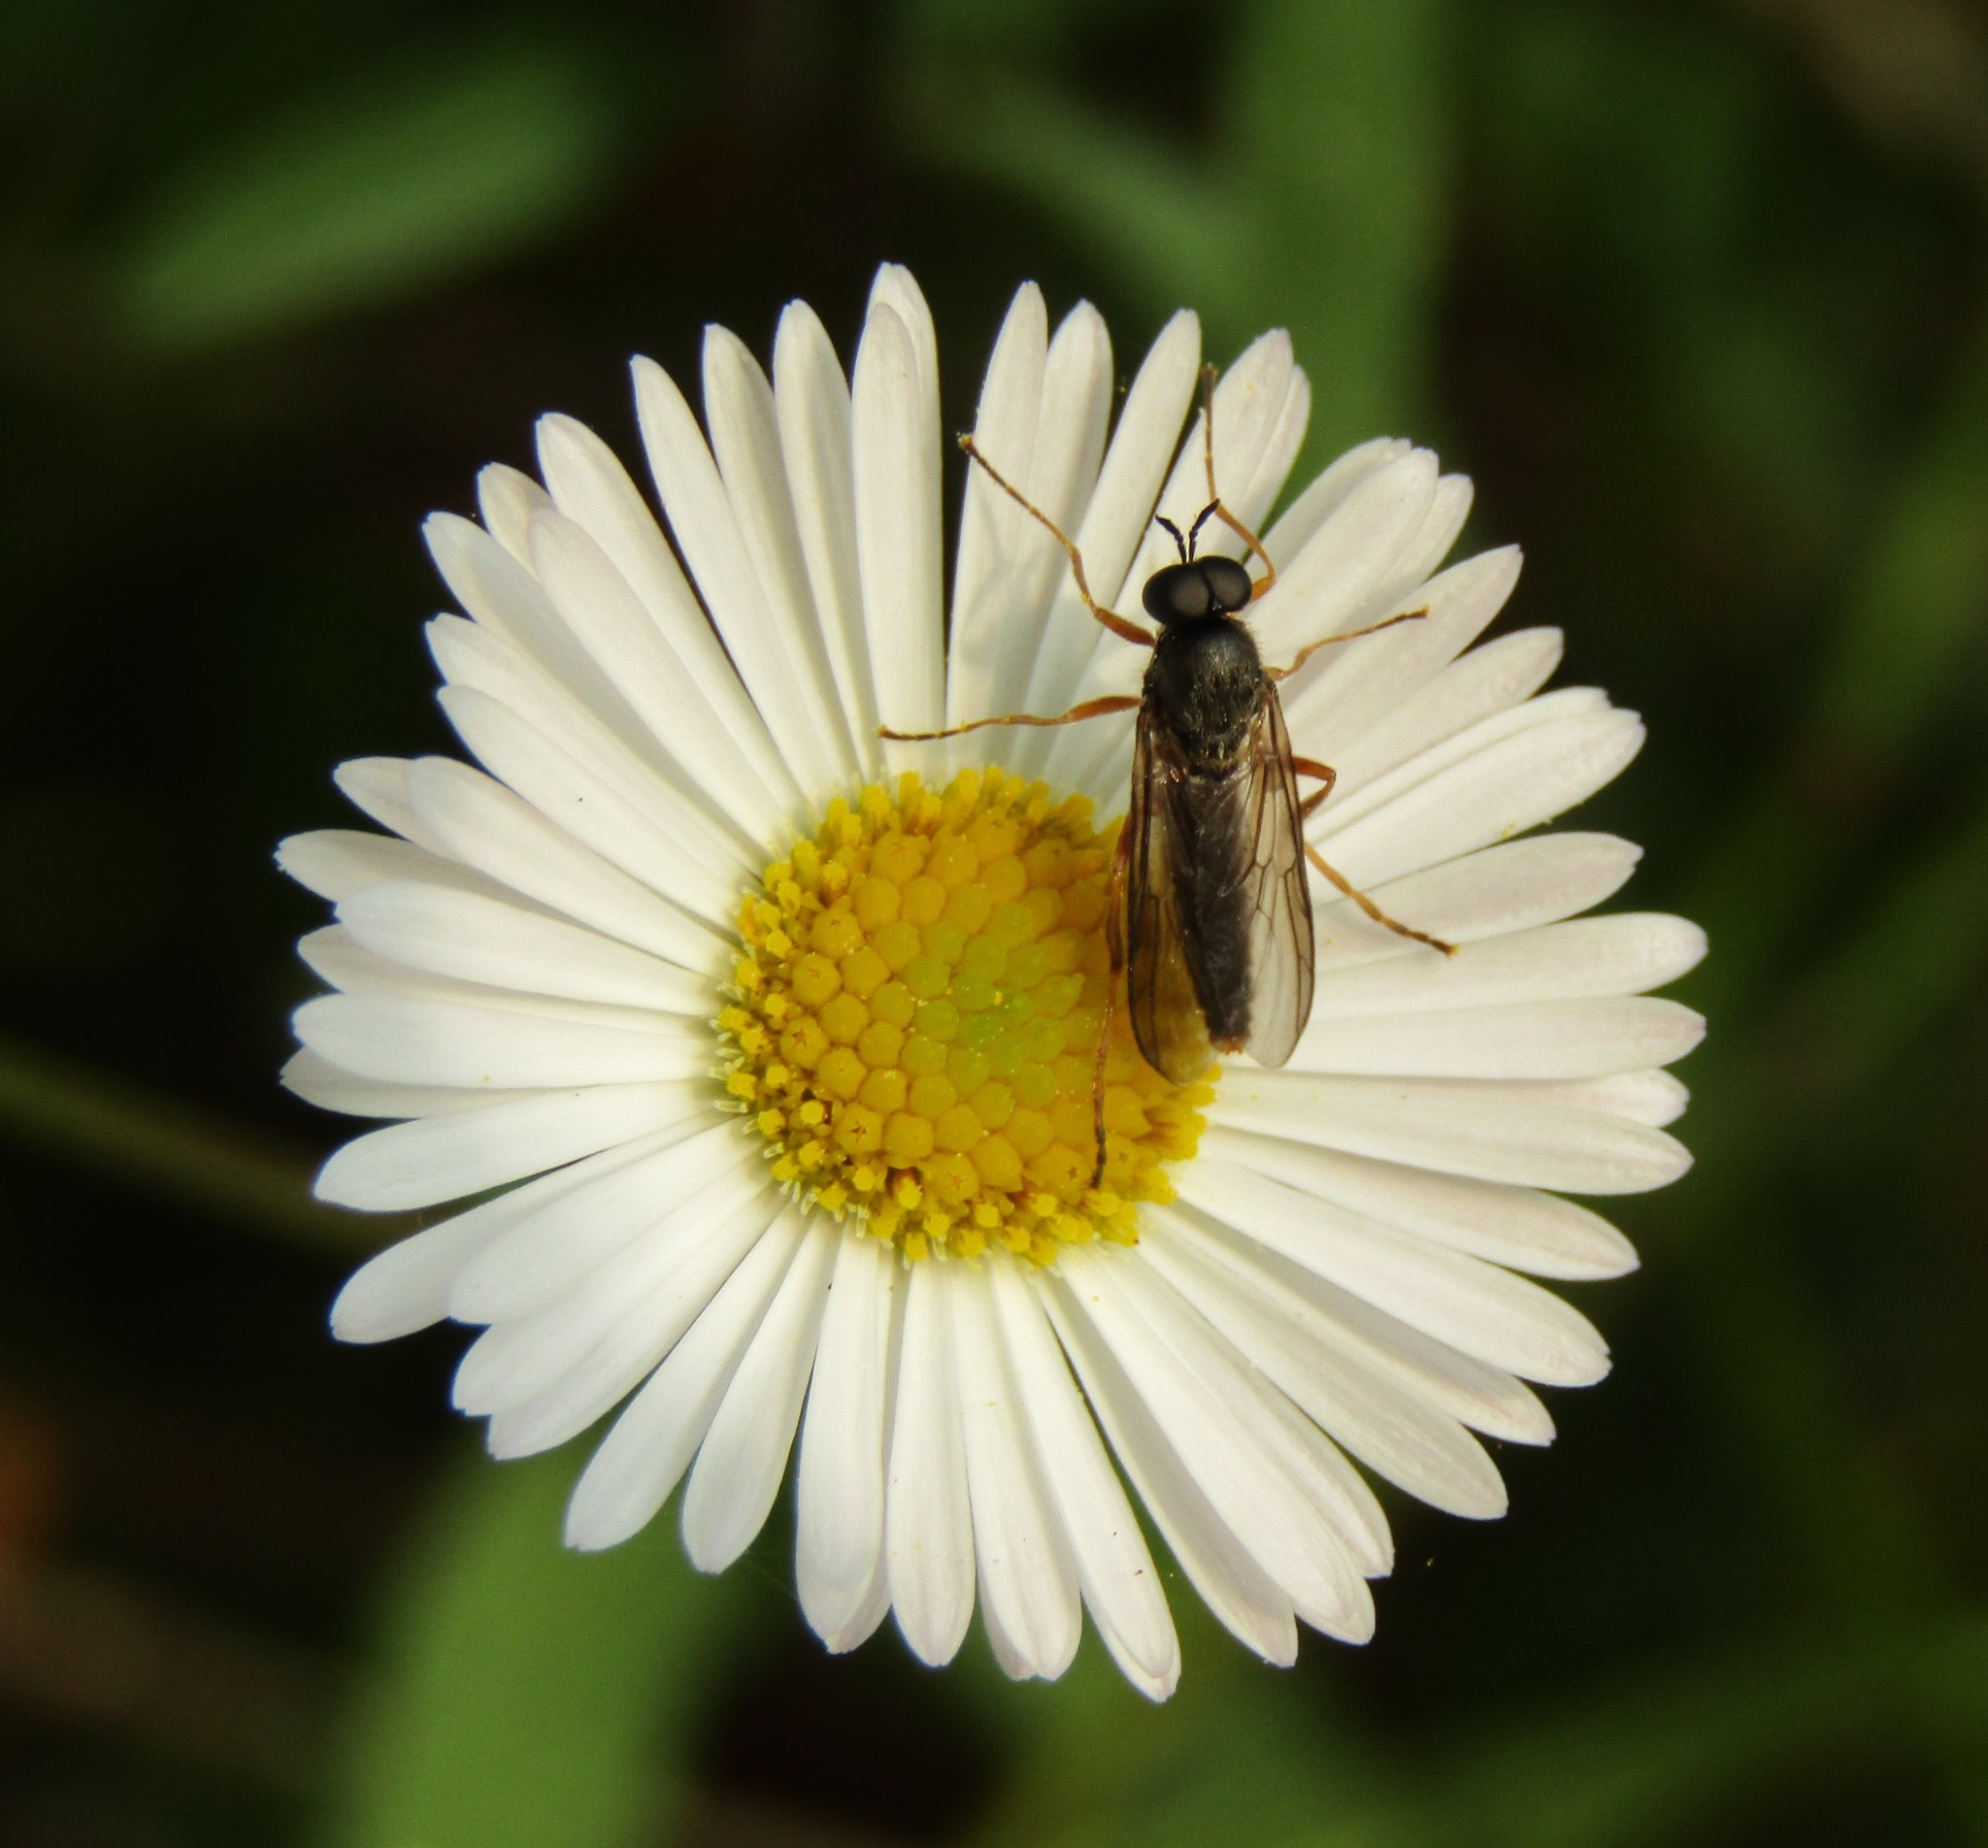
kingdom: Animalia
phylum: Arthropoda
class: Insecta
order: Diptera
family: Stratiomyidae
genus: Inopus
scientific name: Inopus rubriceps
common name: Soldier fly
